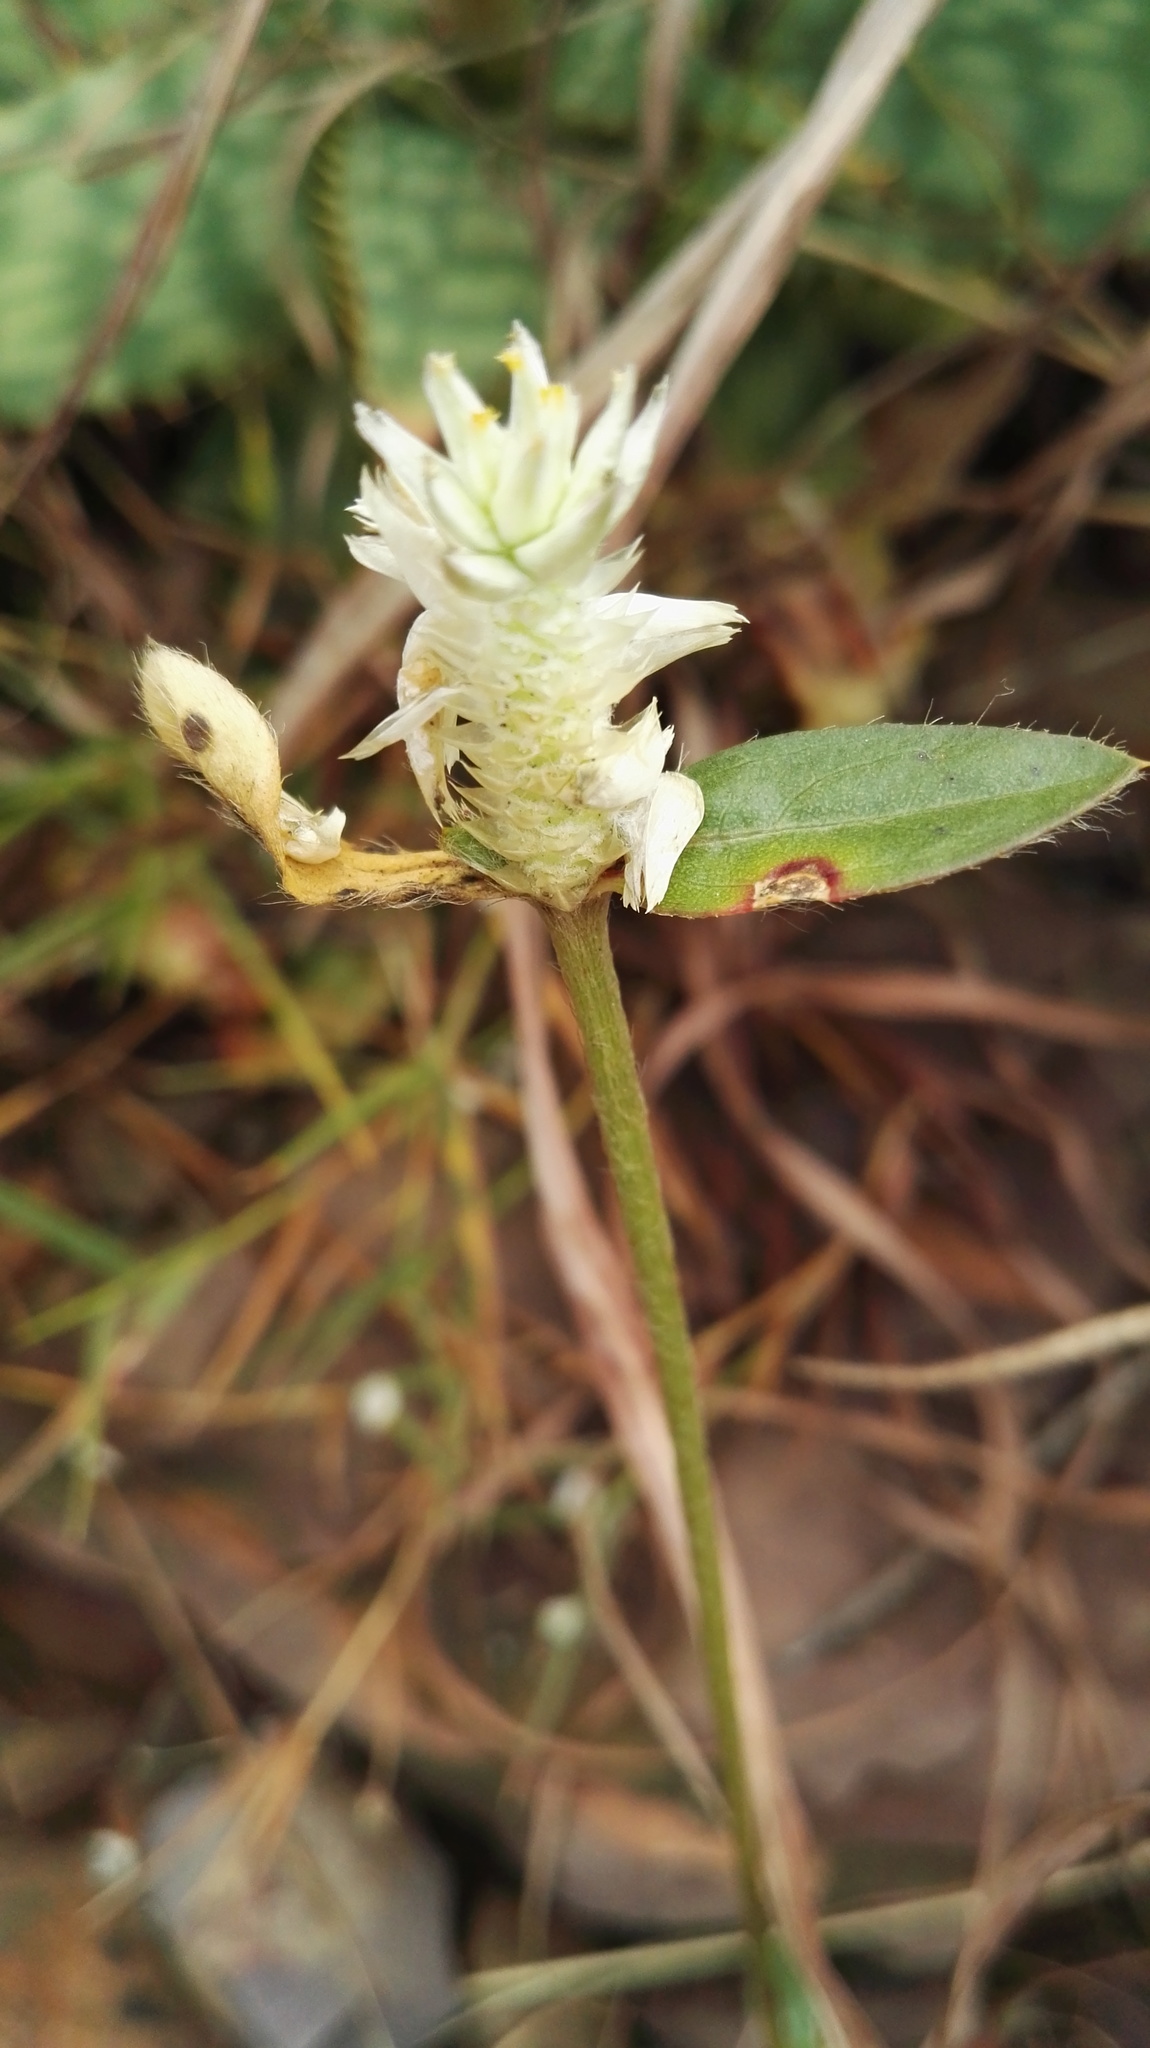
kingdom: Plantae
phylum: Tracheophyta
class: Magnoliopsida
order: Caryophyllales
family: Amaranthaceae
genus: Gomphrena
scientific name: Gomphrena celosioides
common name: Gomphrena-weed
